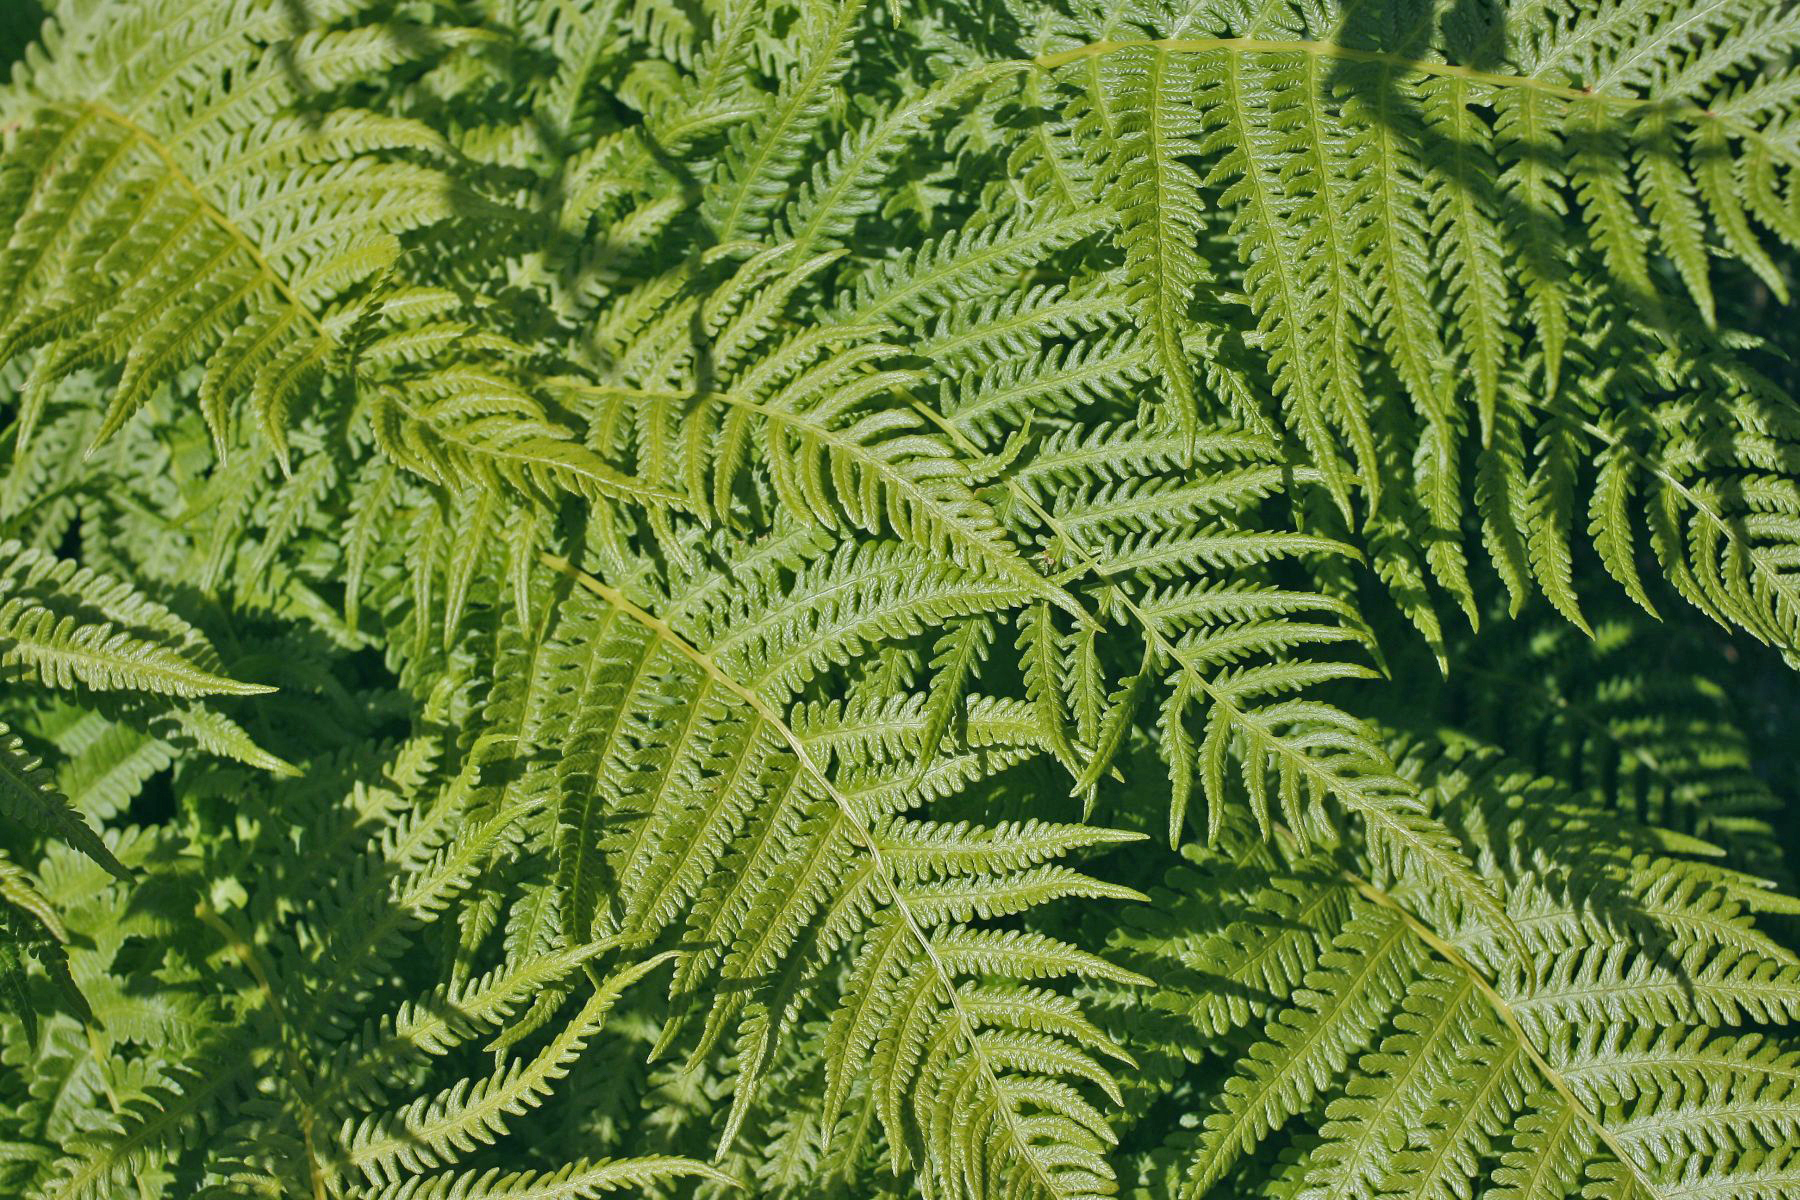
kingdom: Plantae
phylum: Tracheophyta
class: Polypodiopsida
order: Polypodiales
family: Thelypteridaceae
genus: Oreopteris
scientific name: Oreopteris quelpartensis
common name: Mountain fern
